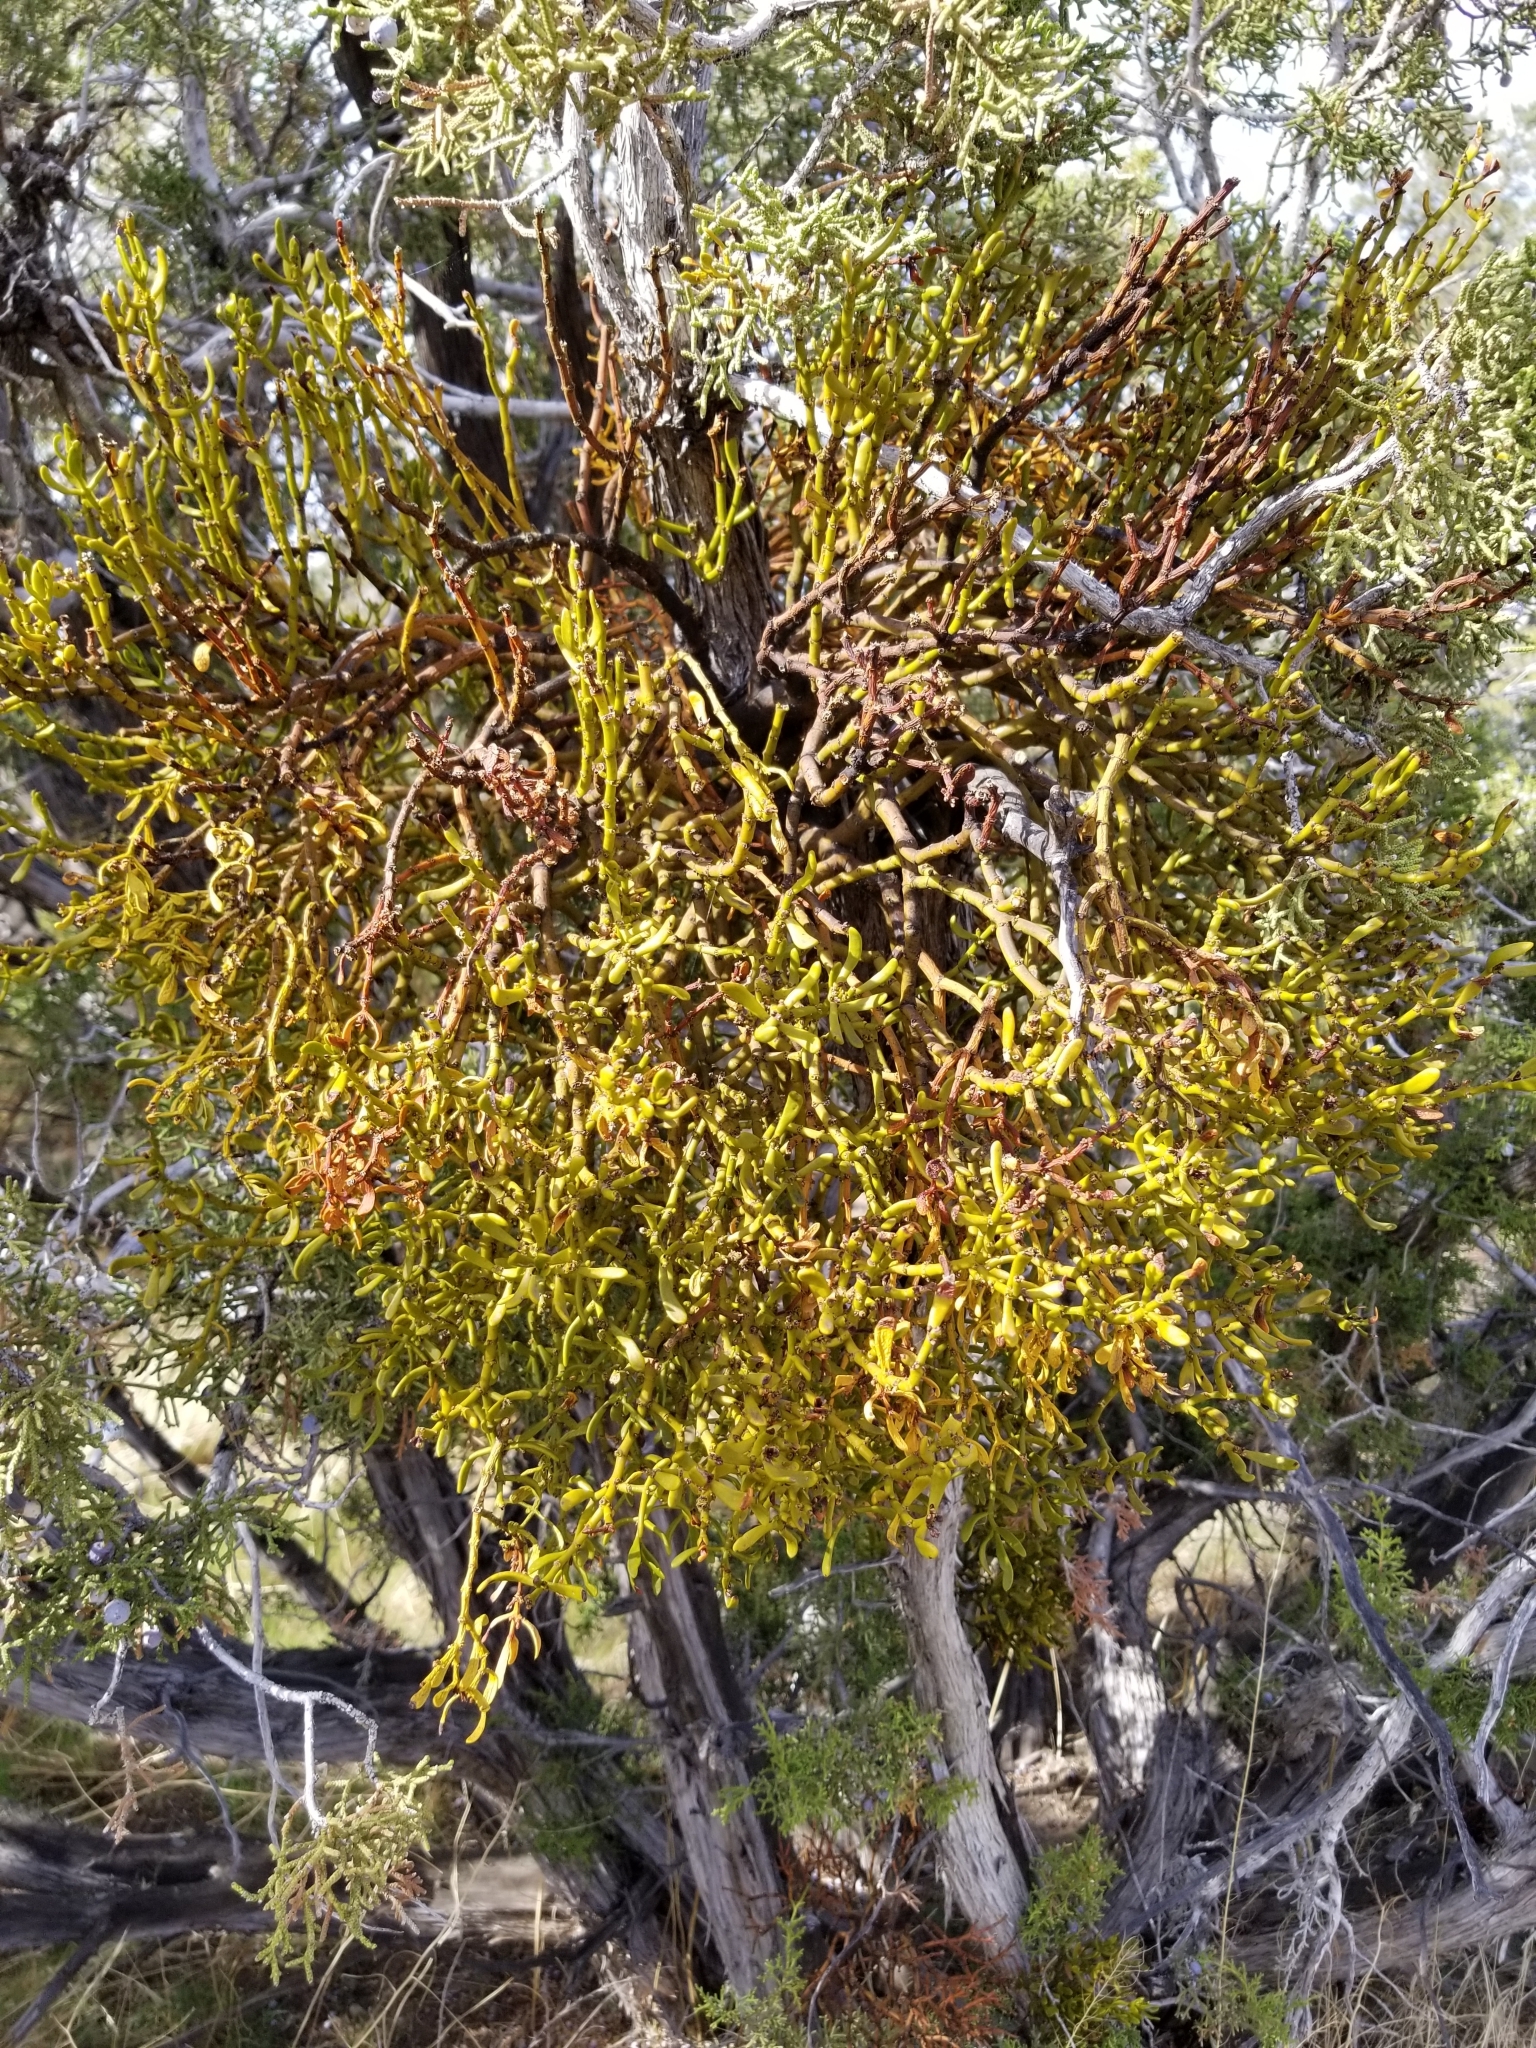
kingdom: Plantae
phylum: Tracheophyta
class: Magnoliopsida
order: Santalales
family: Viscaceae
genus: Phoradendron
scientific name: Phoradendron bolleanum
